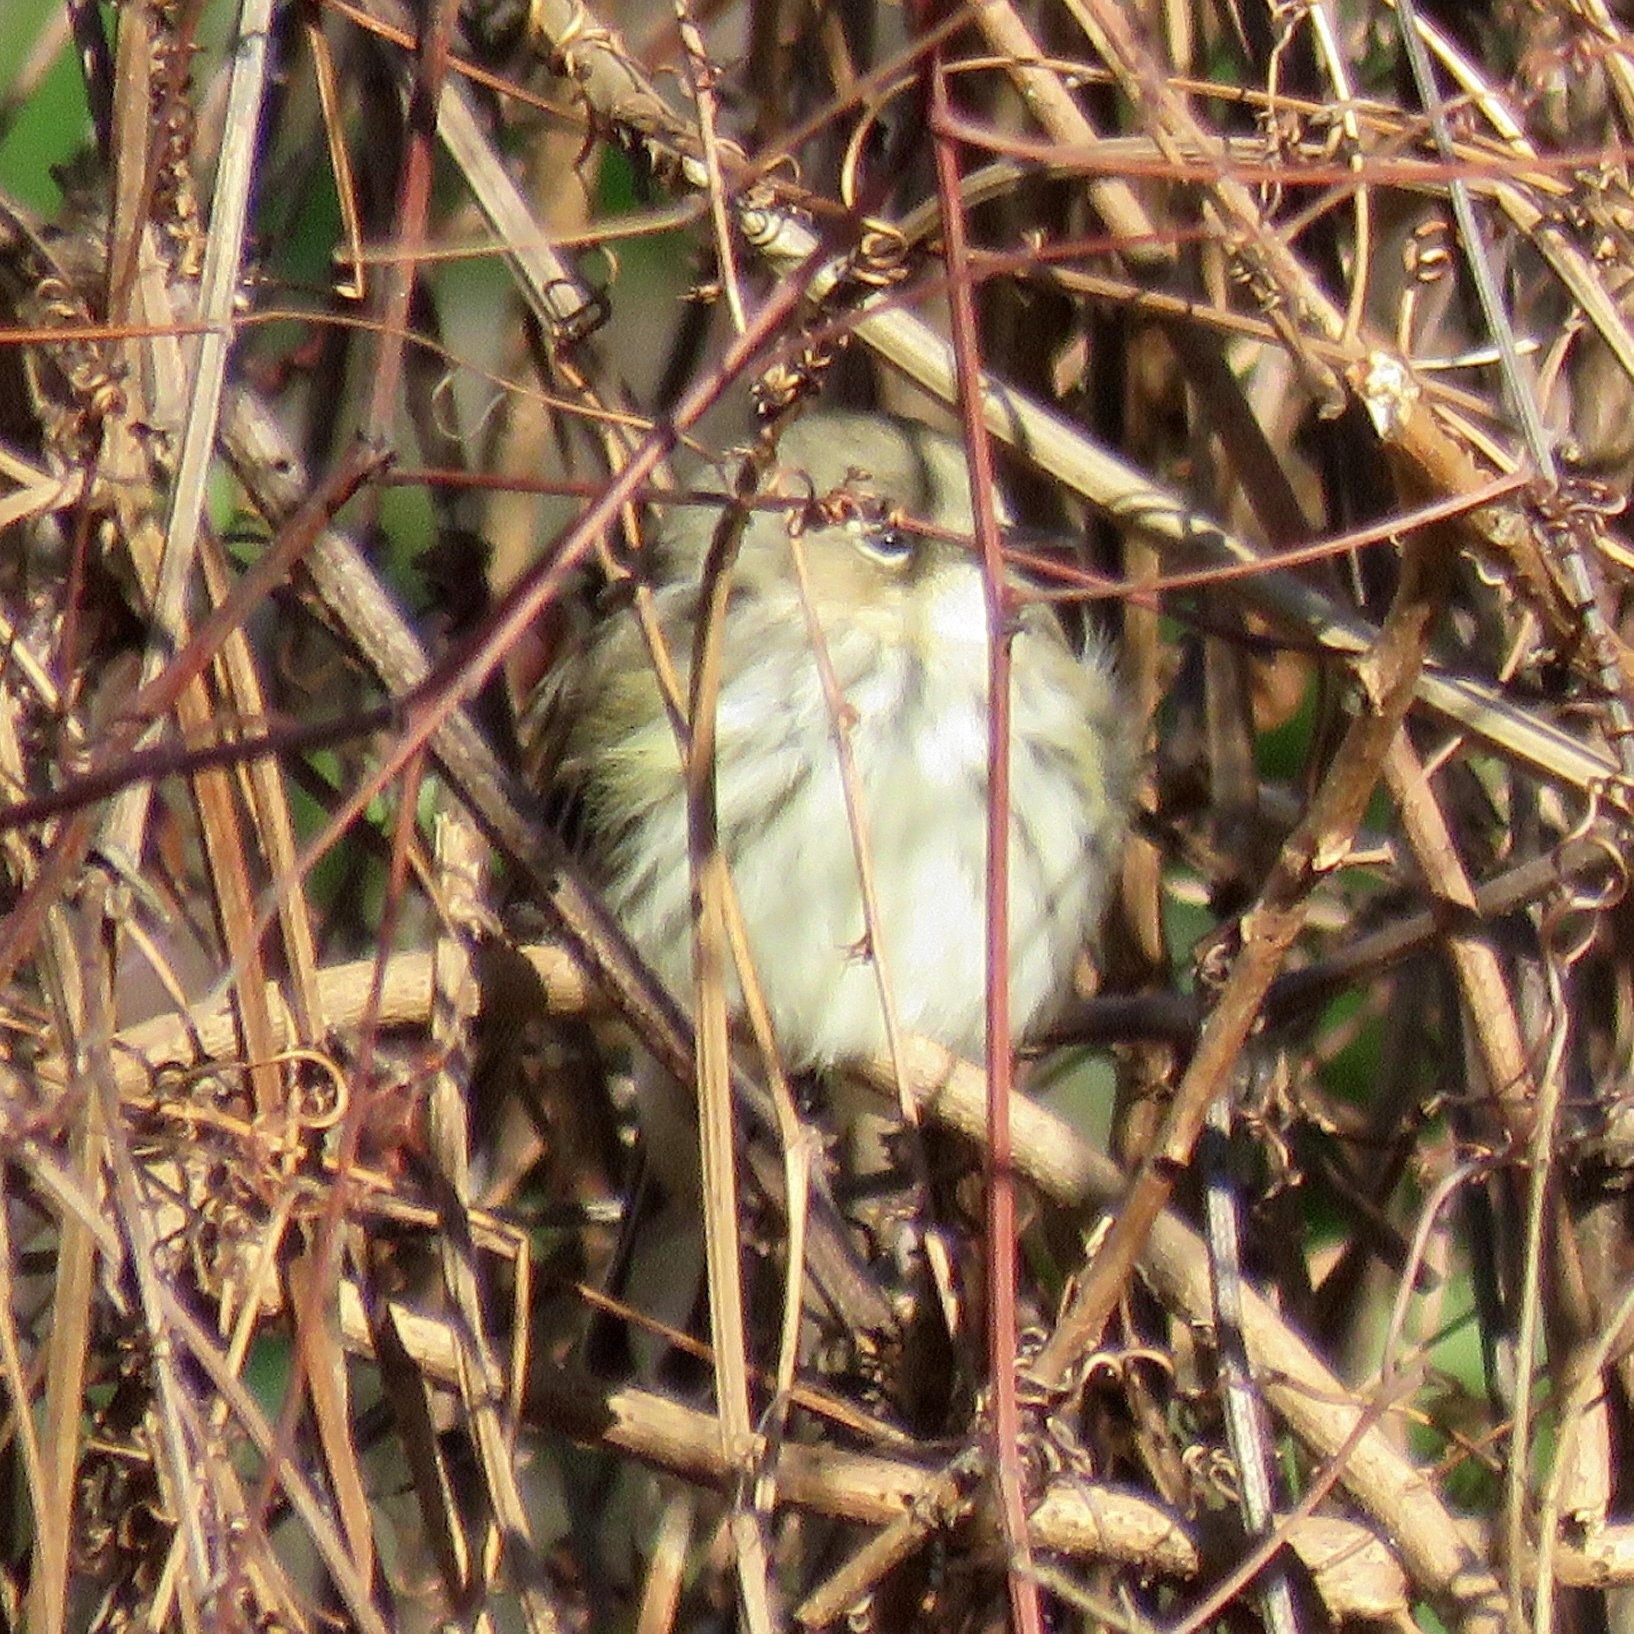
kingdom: Animalia
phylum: Chordata
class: Aves
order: Passeriformes
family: Parulidae
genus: Setophaga
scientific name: Setophaga coronata
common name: Myrtle warbler
